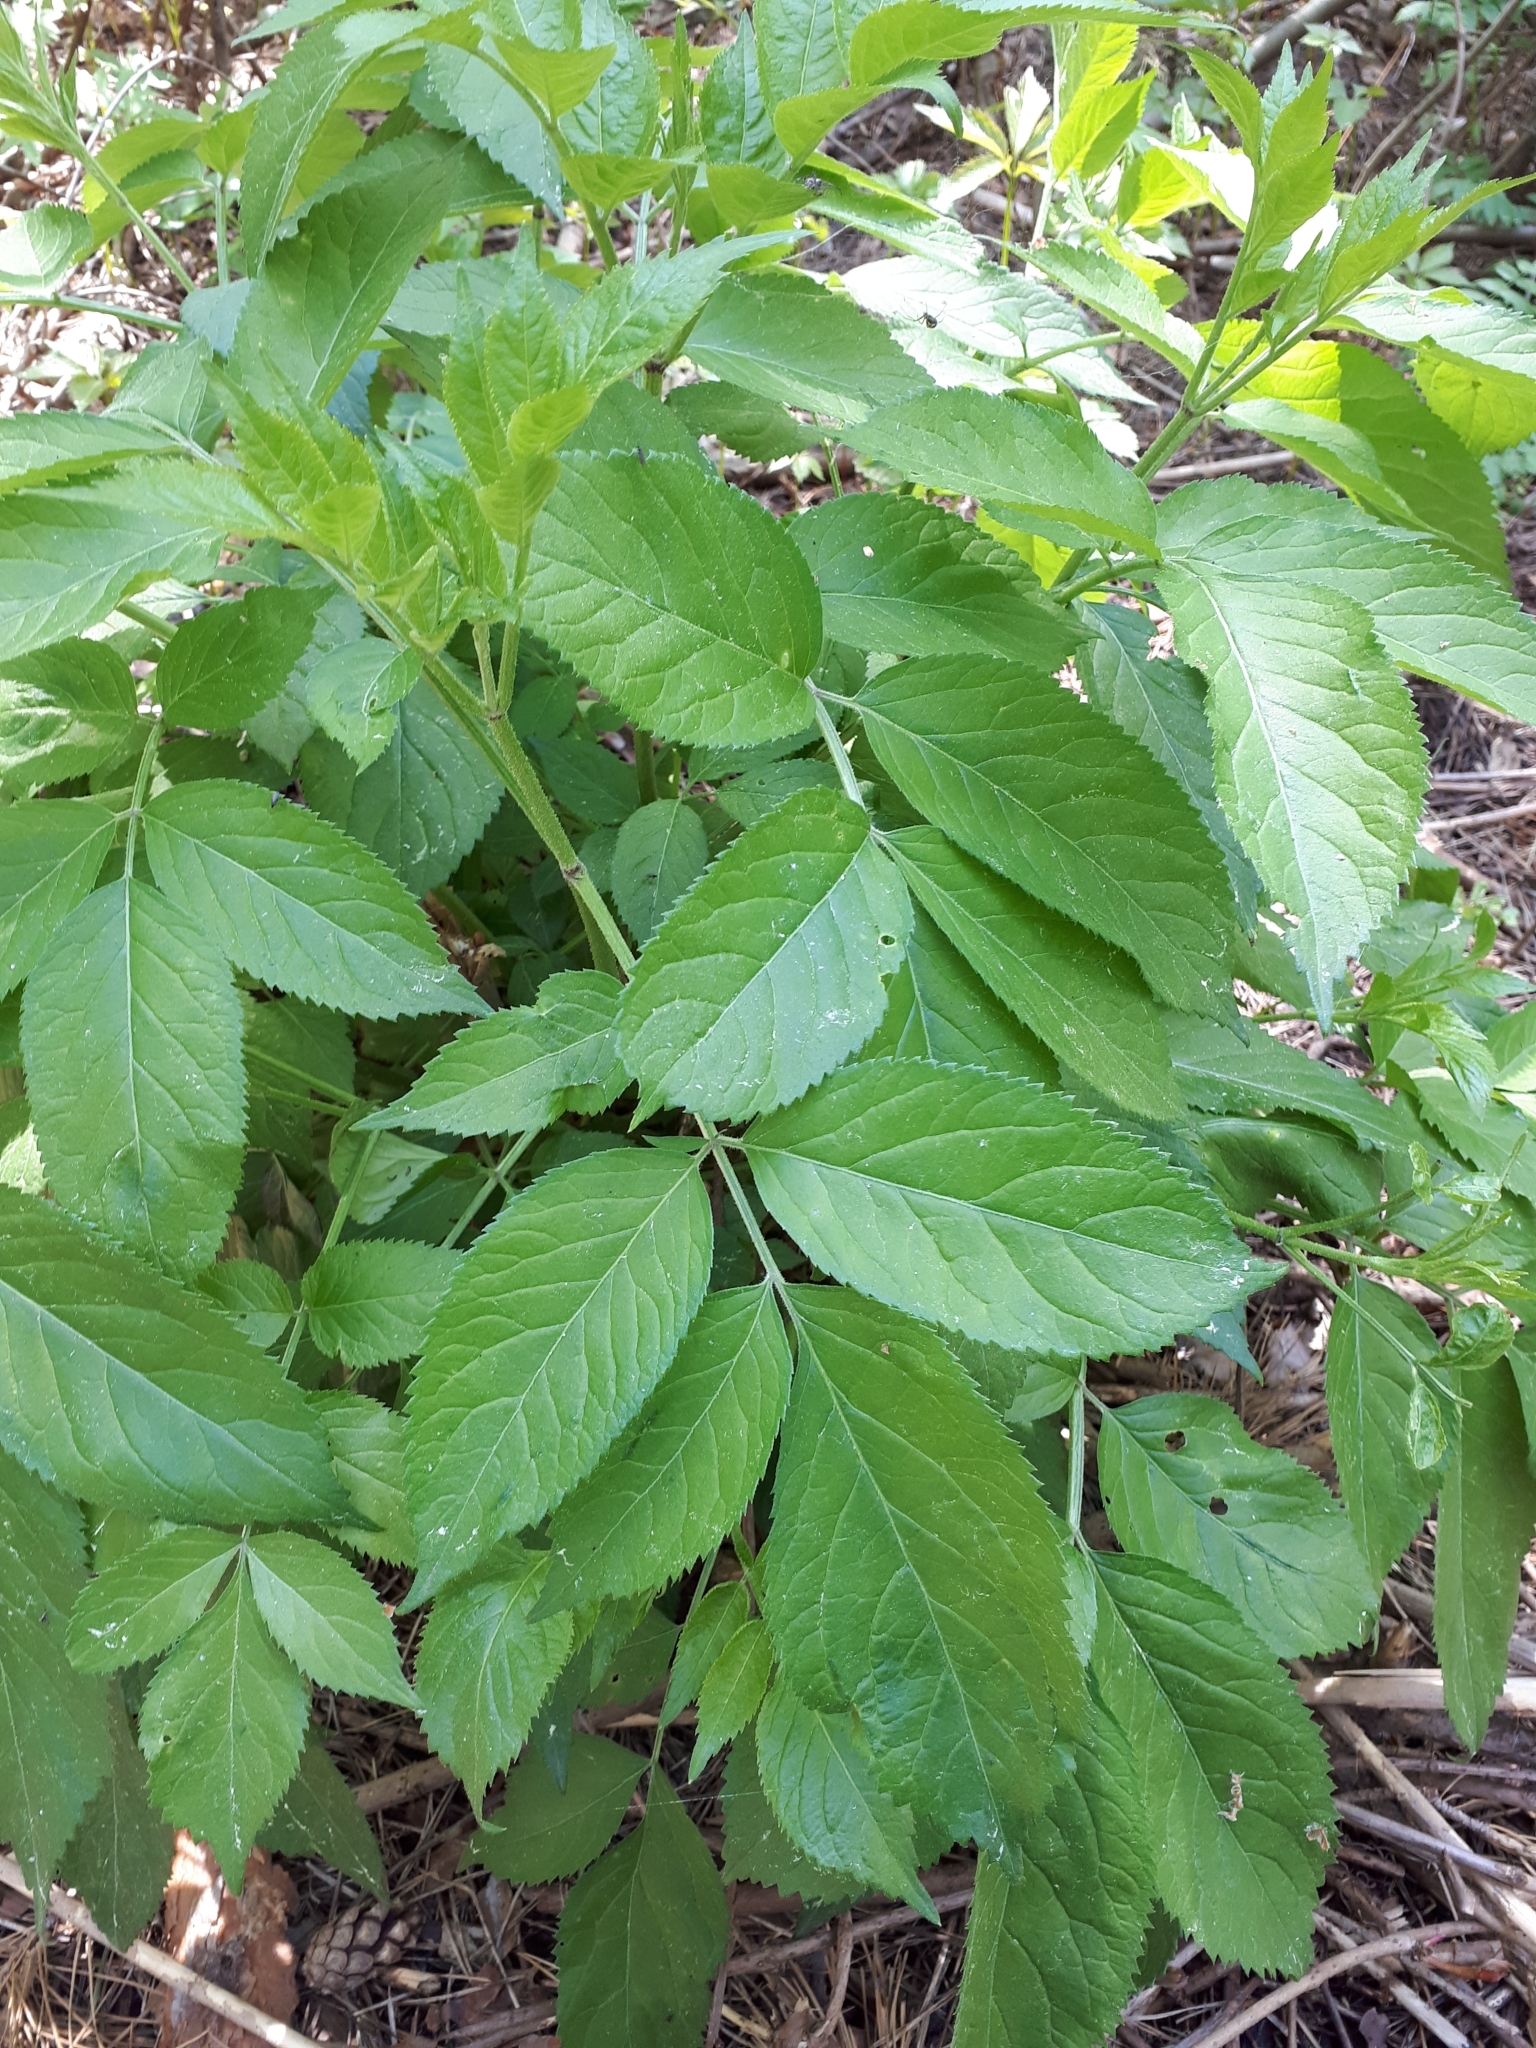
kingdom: Plantae
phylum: Tracheophyta
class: Magnoliopsida
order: Dipsacales
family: Viburnaceae
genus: Sambucus
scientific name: Sambucus nigra
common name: Elder
